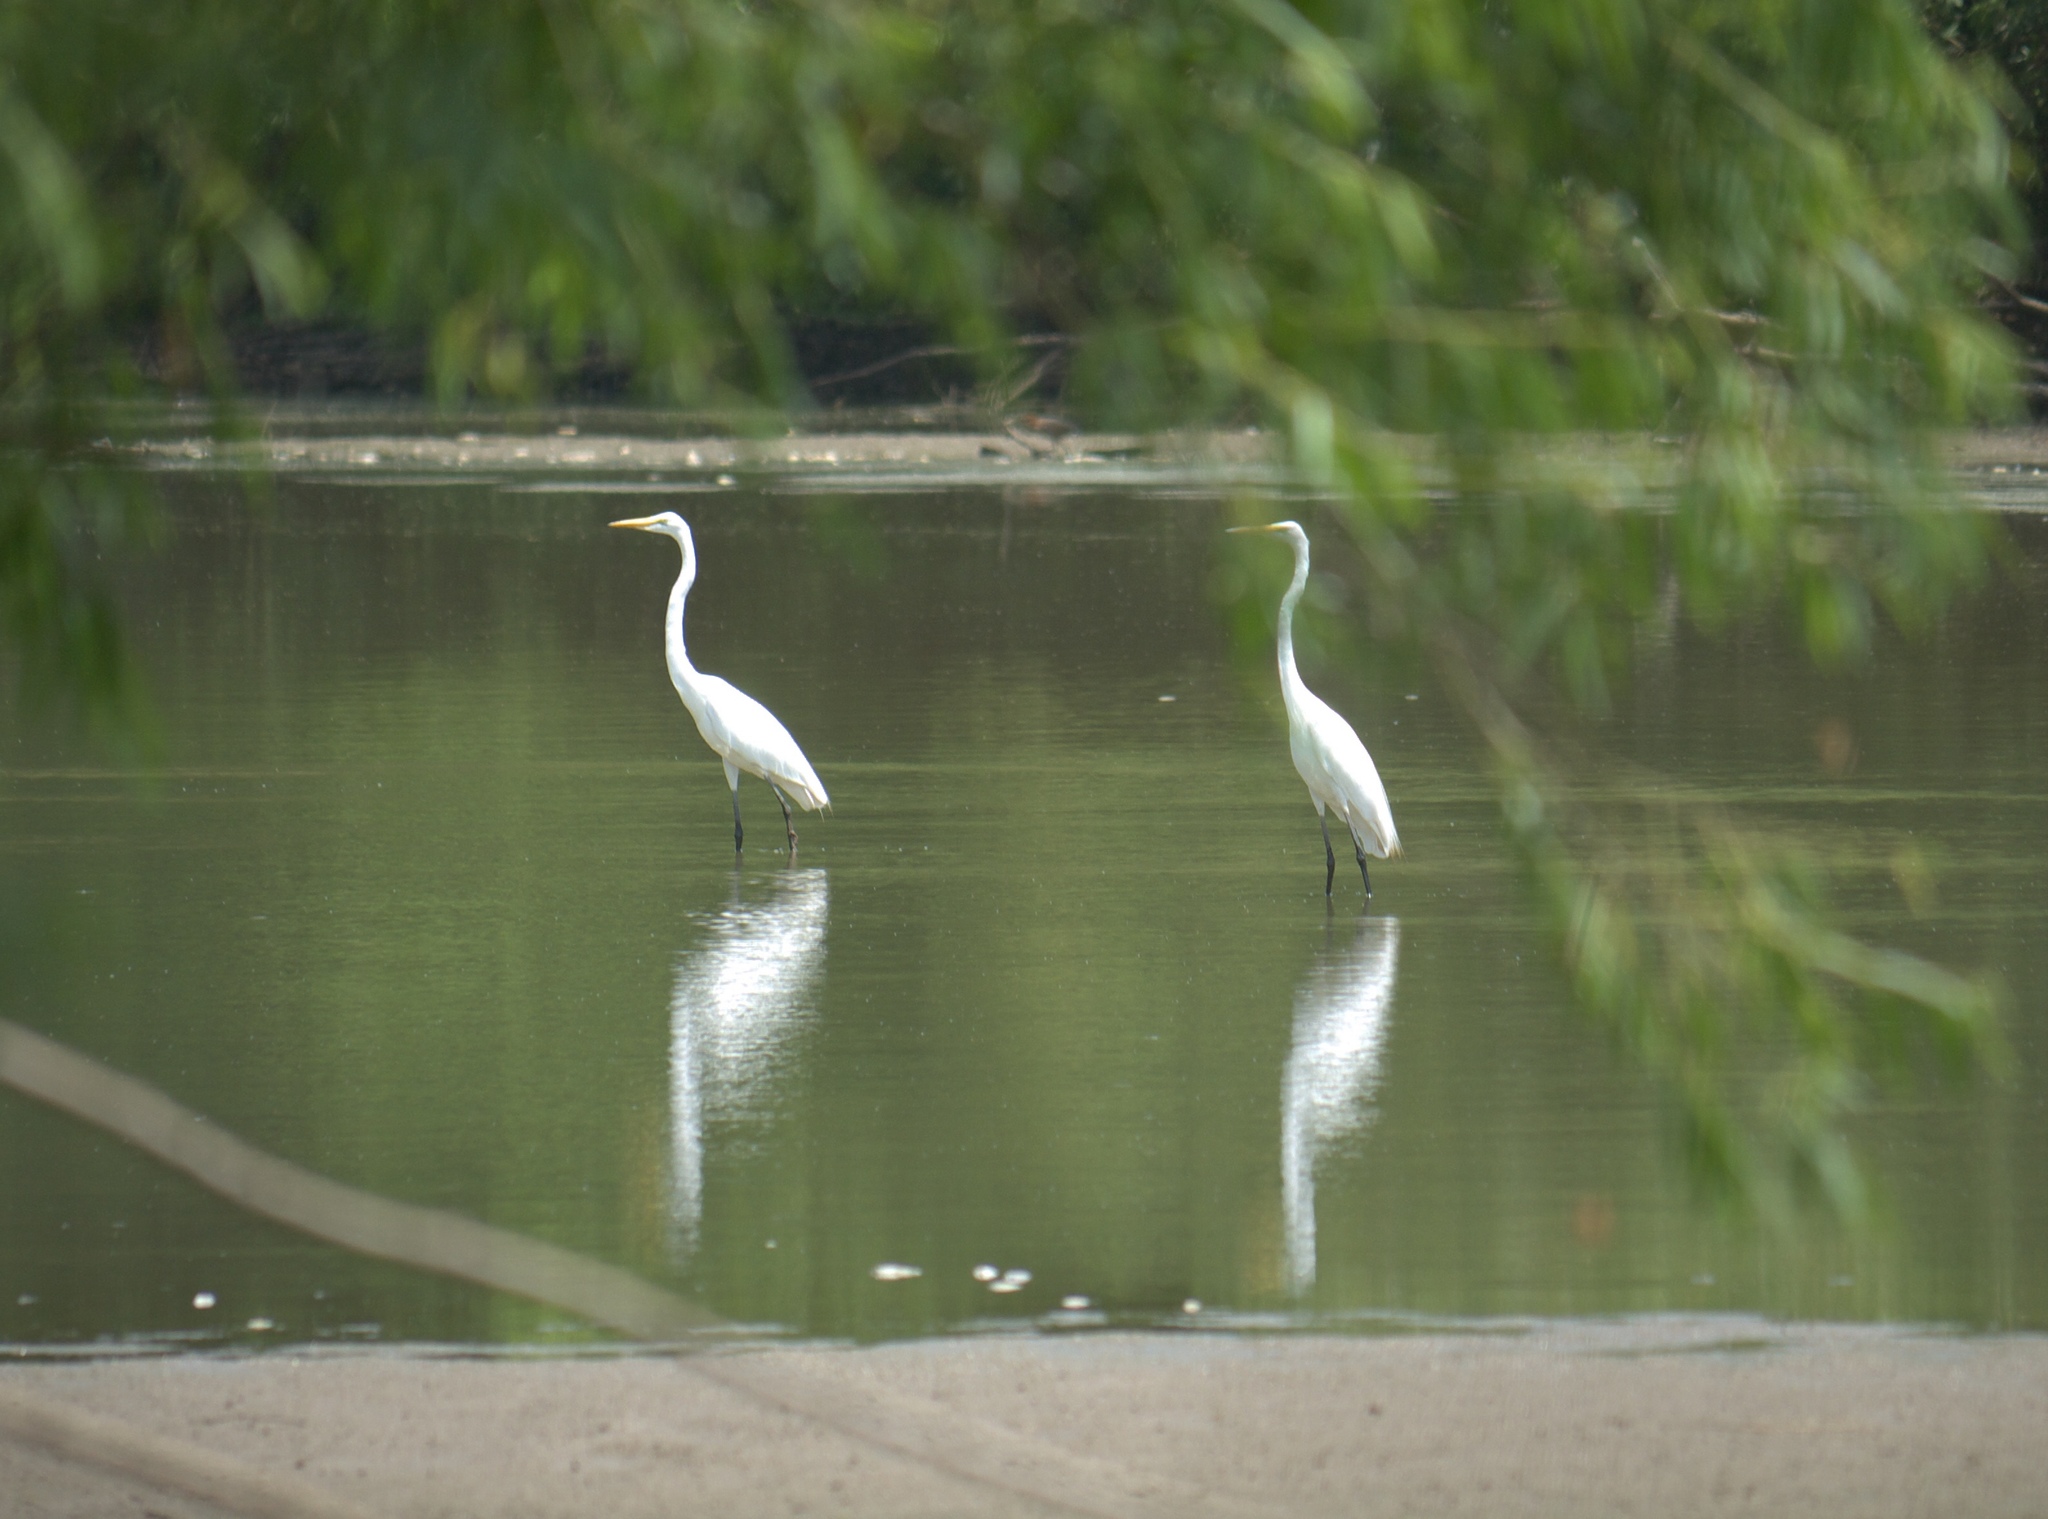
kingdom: Animalia
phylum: Chordata
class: Aves
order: Pelecaniformes
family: Ardeidae
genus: Ardea
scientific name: Ardea alba
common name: Great egret
